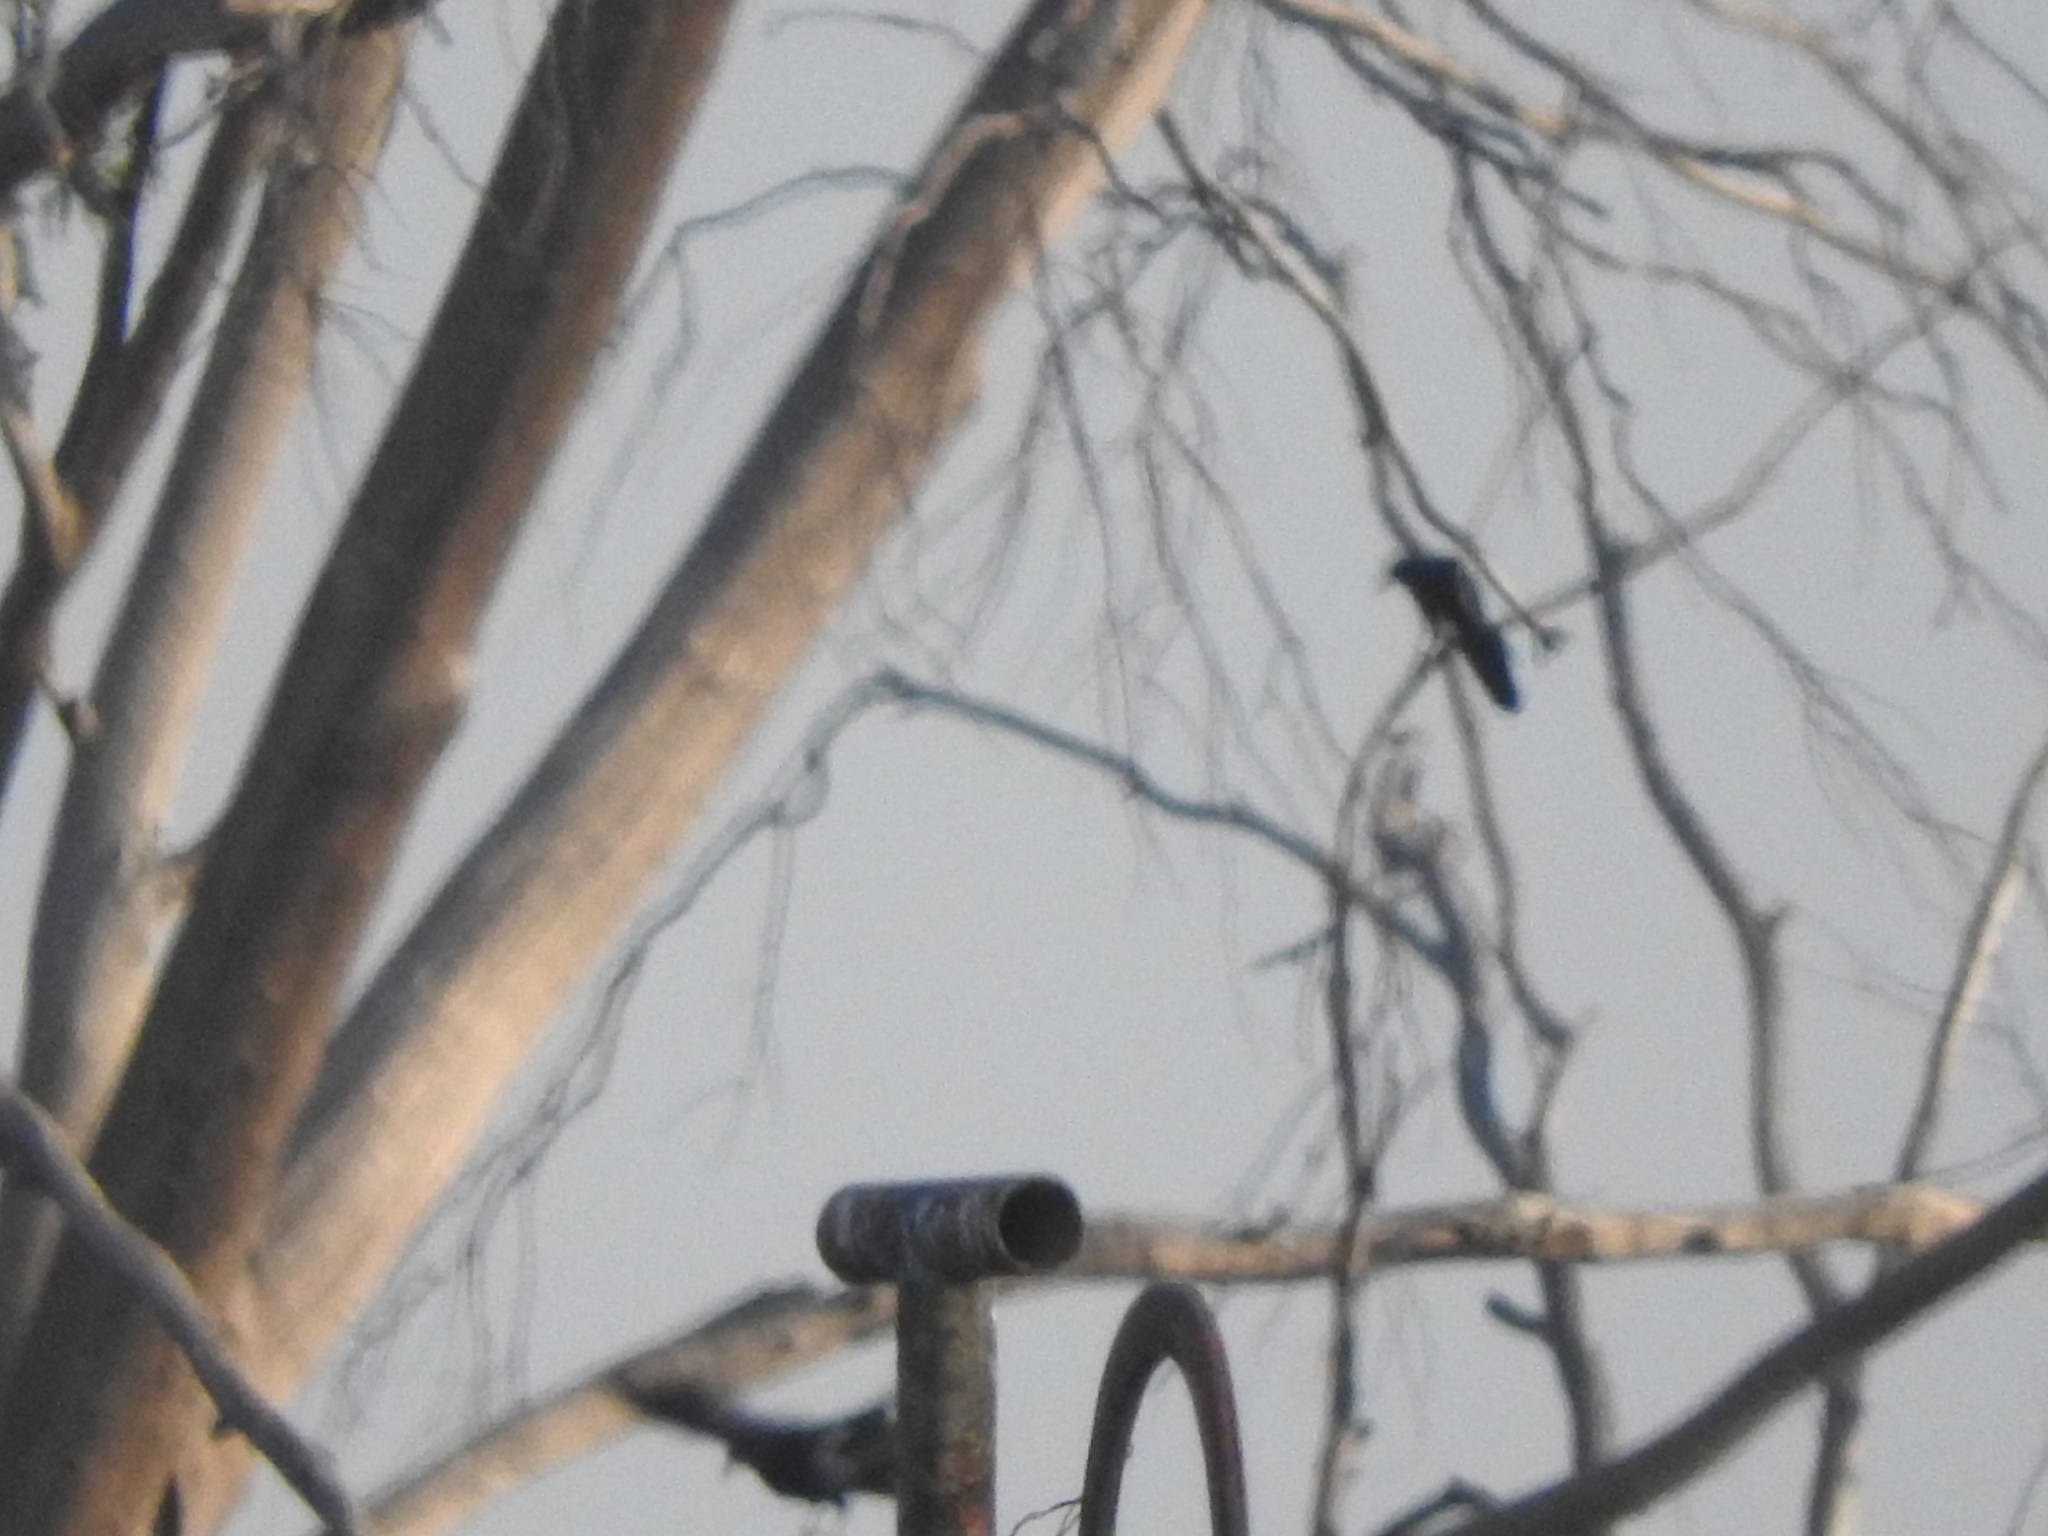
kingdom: Animalia
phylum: Chordata
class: Aves
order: Passeriformes
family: Icteridae
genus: Quiscalus
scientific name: Quiscalus mexicanus
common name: Great-tailed grackle
